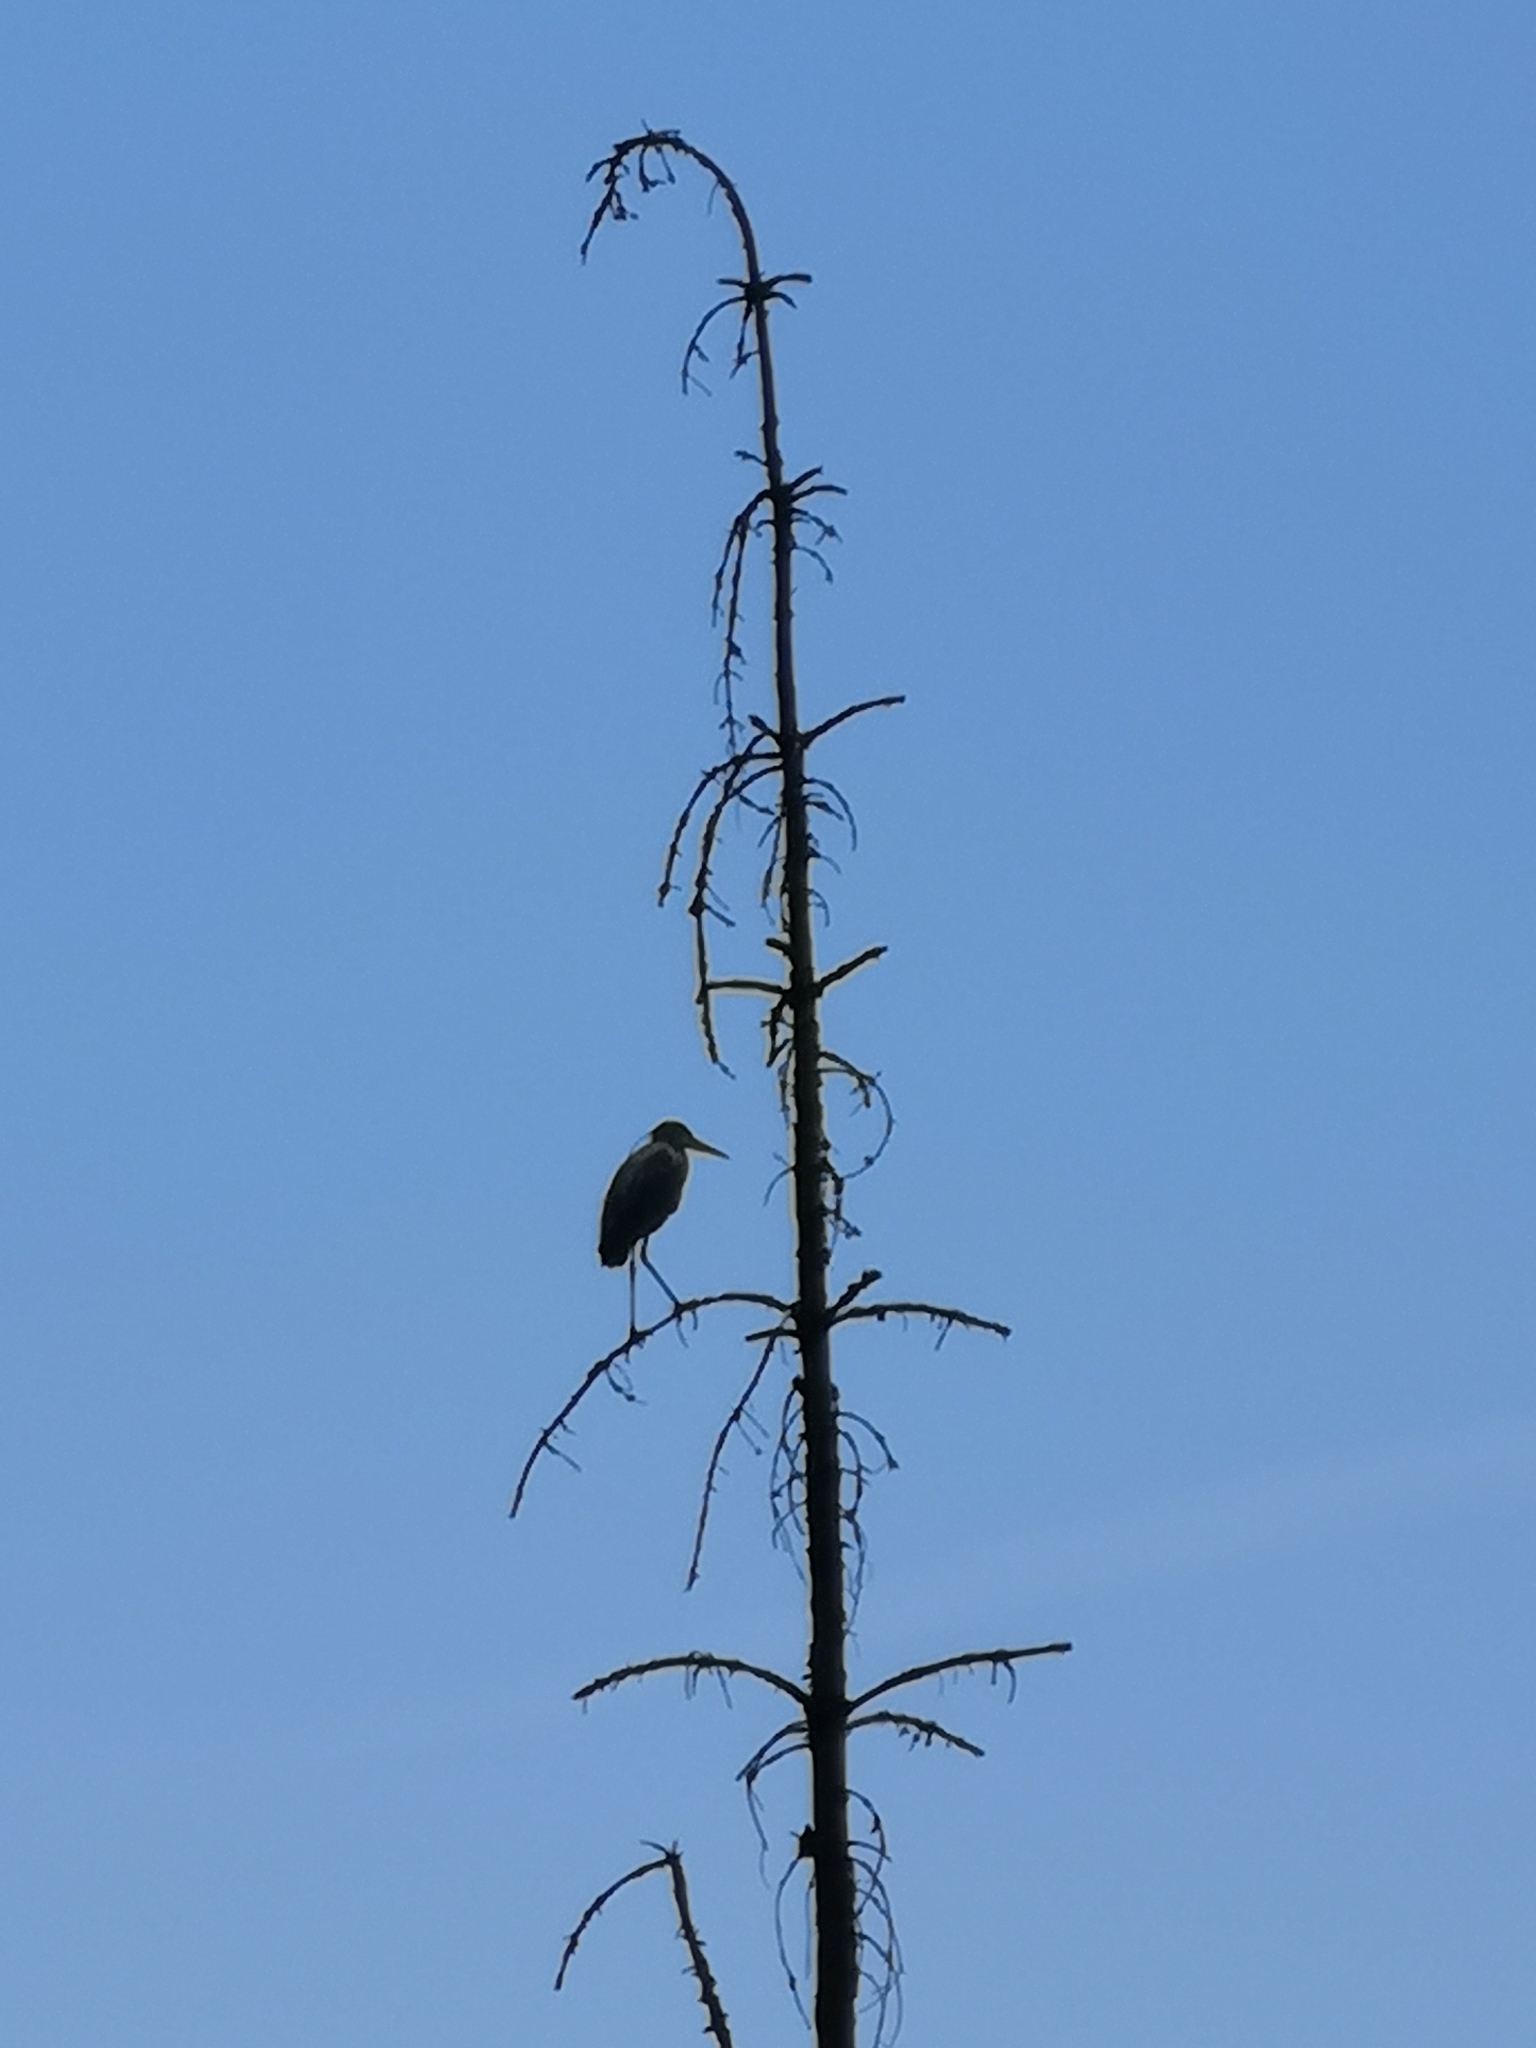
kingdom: Animalia
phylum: Chordata
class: Aves
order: Pelecaniformes
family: Ardeidae
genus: Ardea
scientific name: Ardea cinerea
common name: Grey heron
